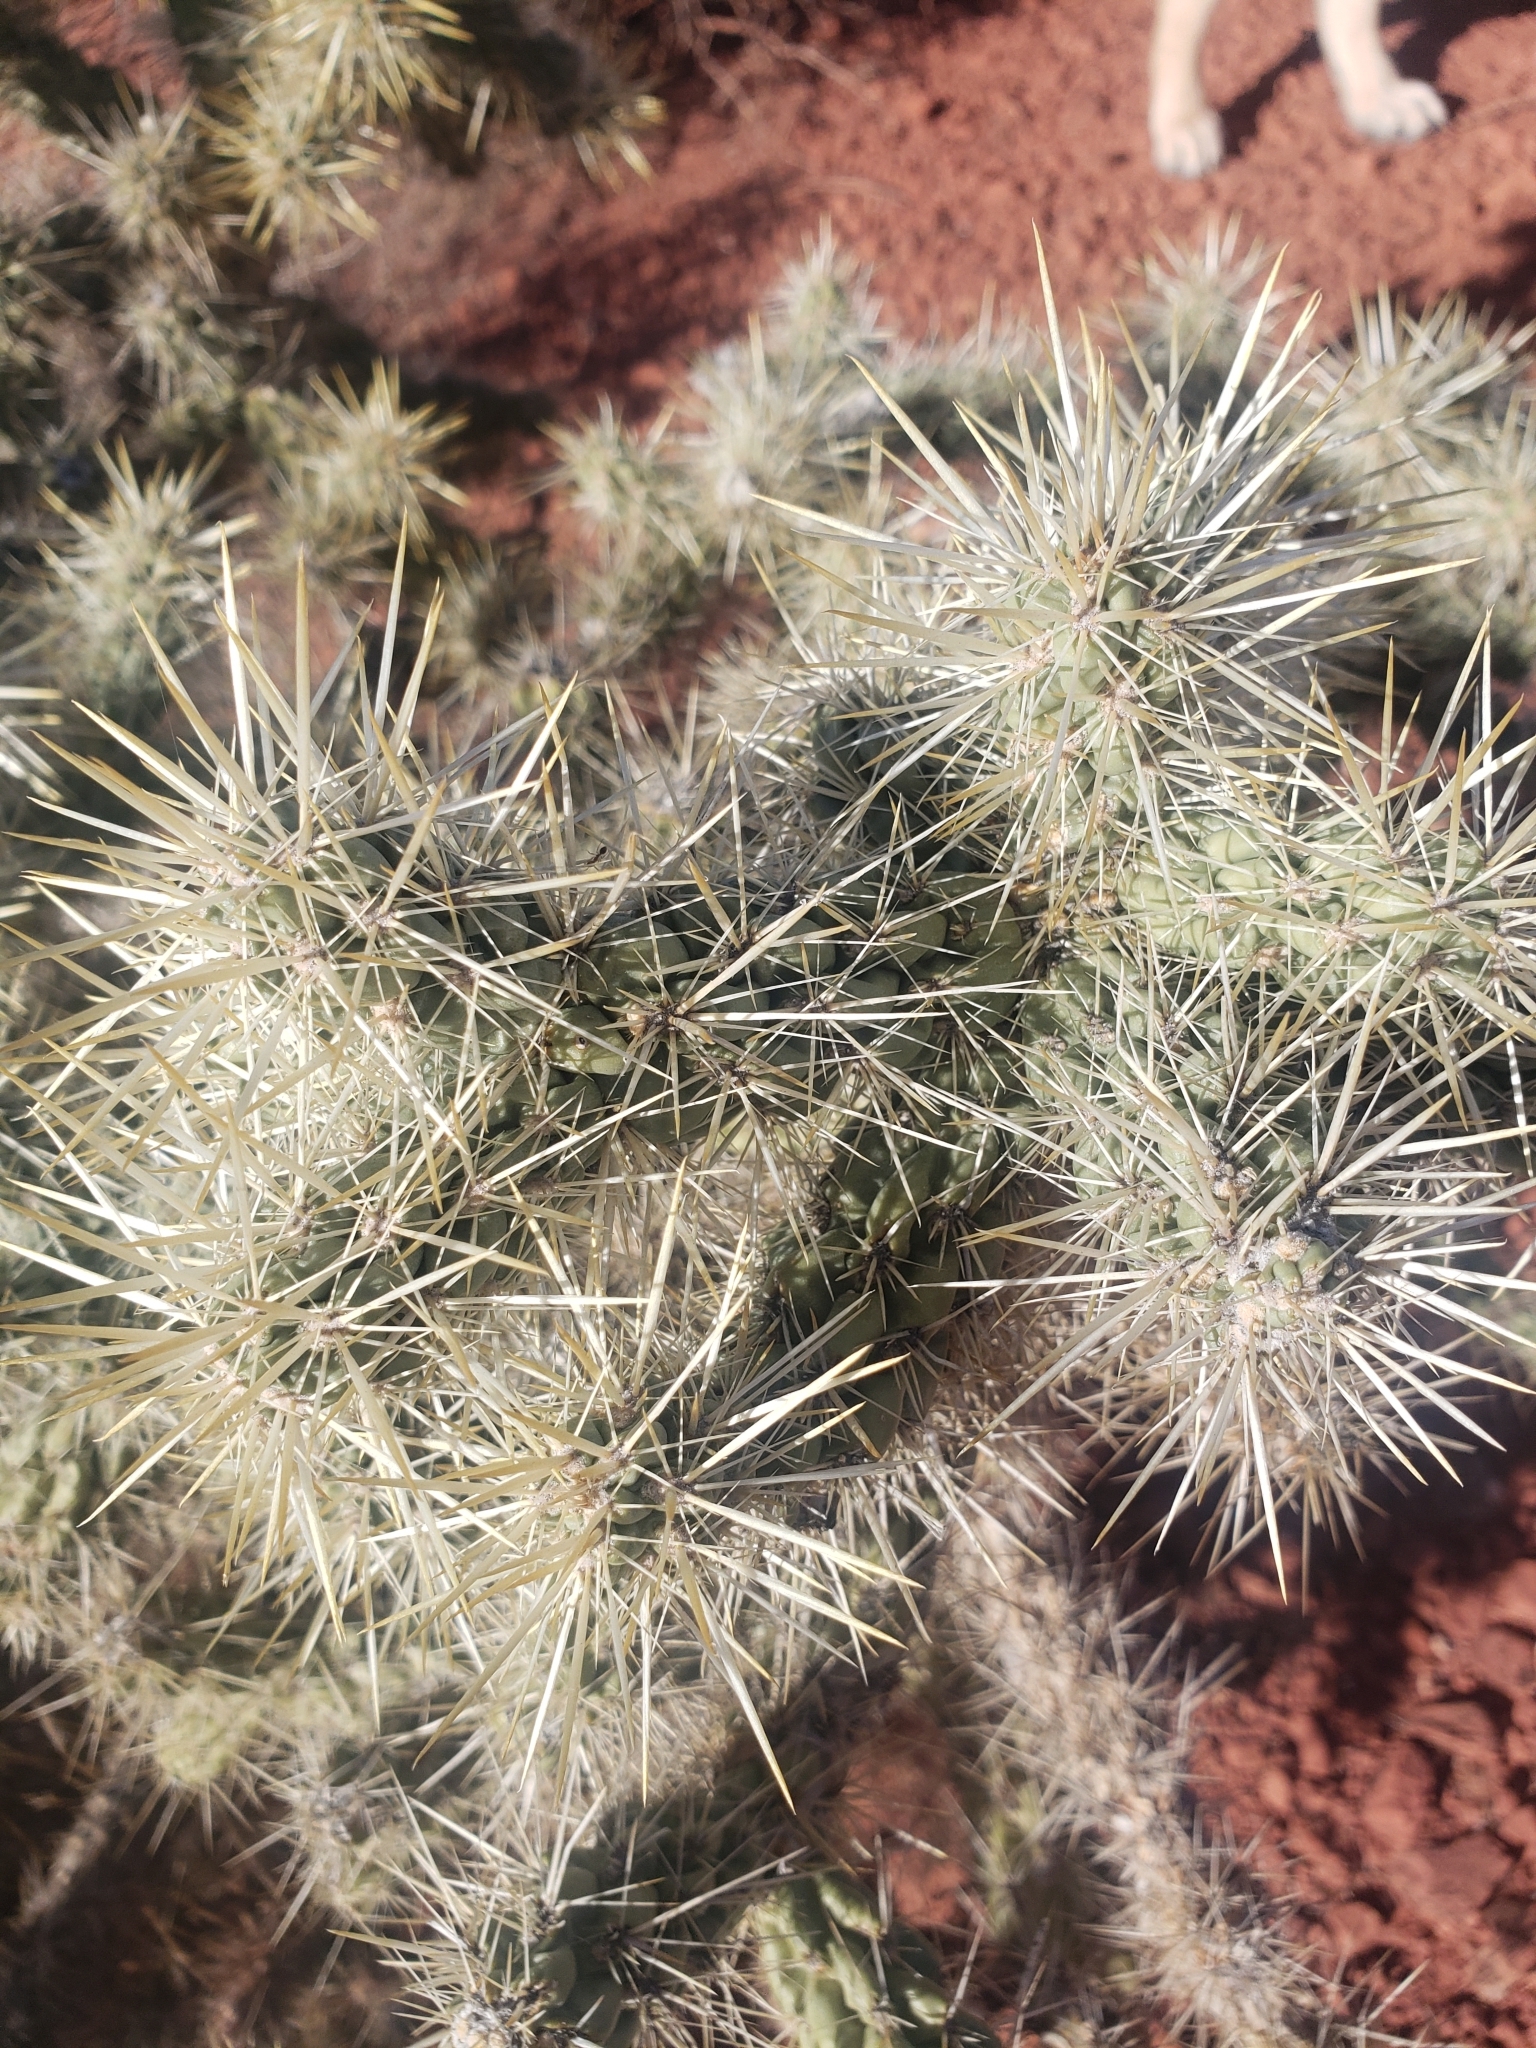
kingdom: Plantae
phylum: Tracheophyta
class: Magnoliopsida
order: Caryophyllales
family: Cactaceae
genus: Cylindropuntia
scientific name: Cylindropuntia echinocarpa
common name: Ground cholla
